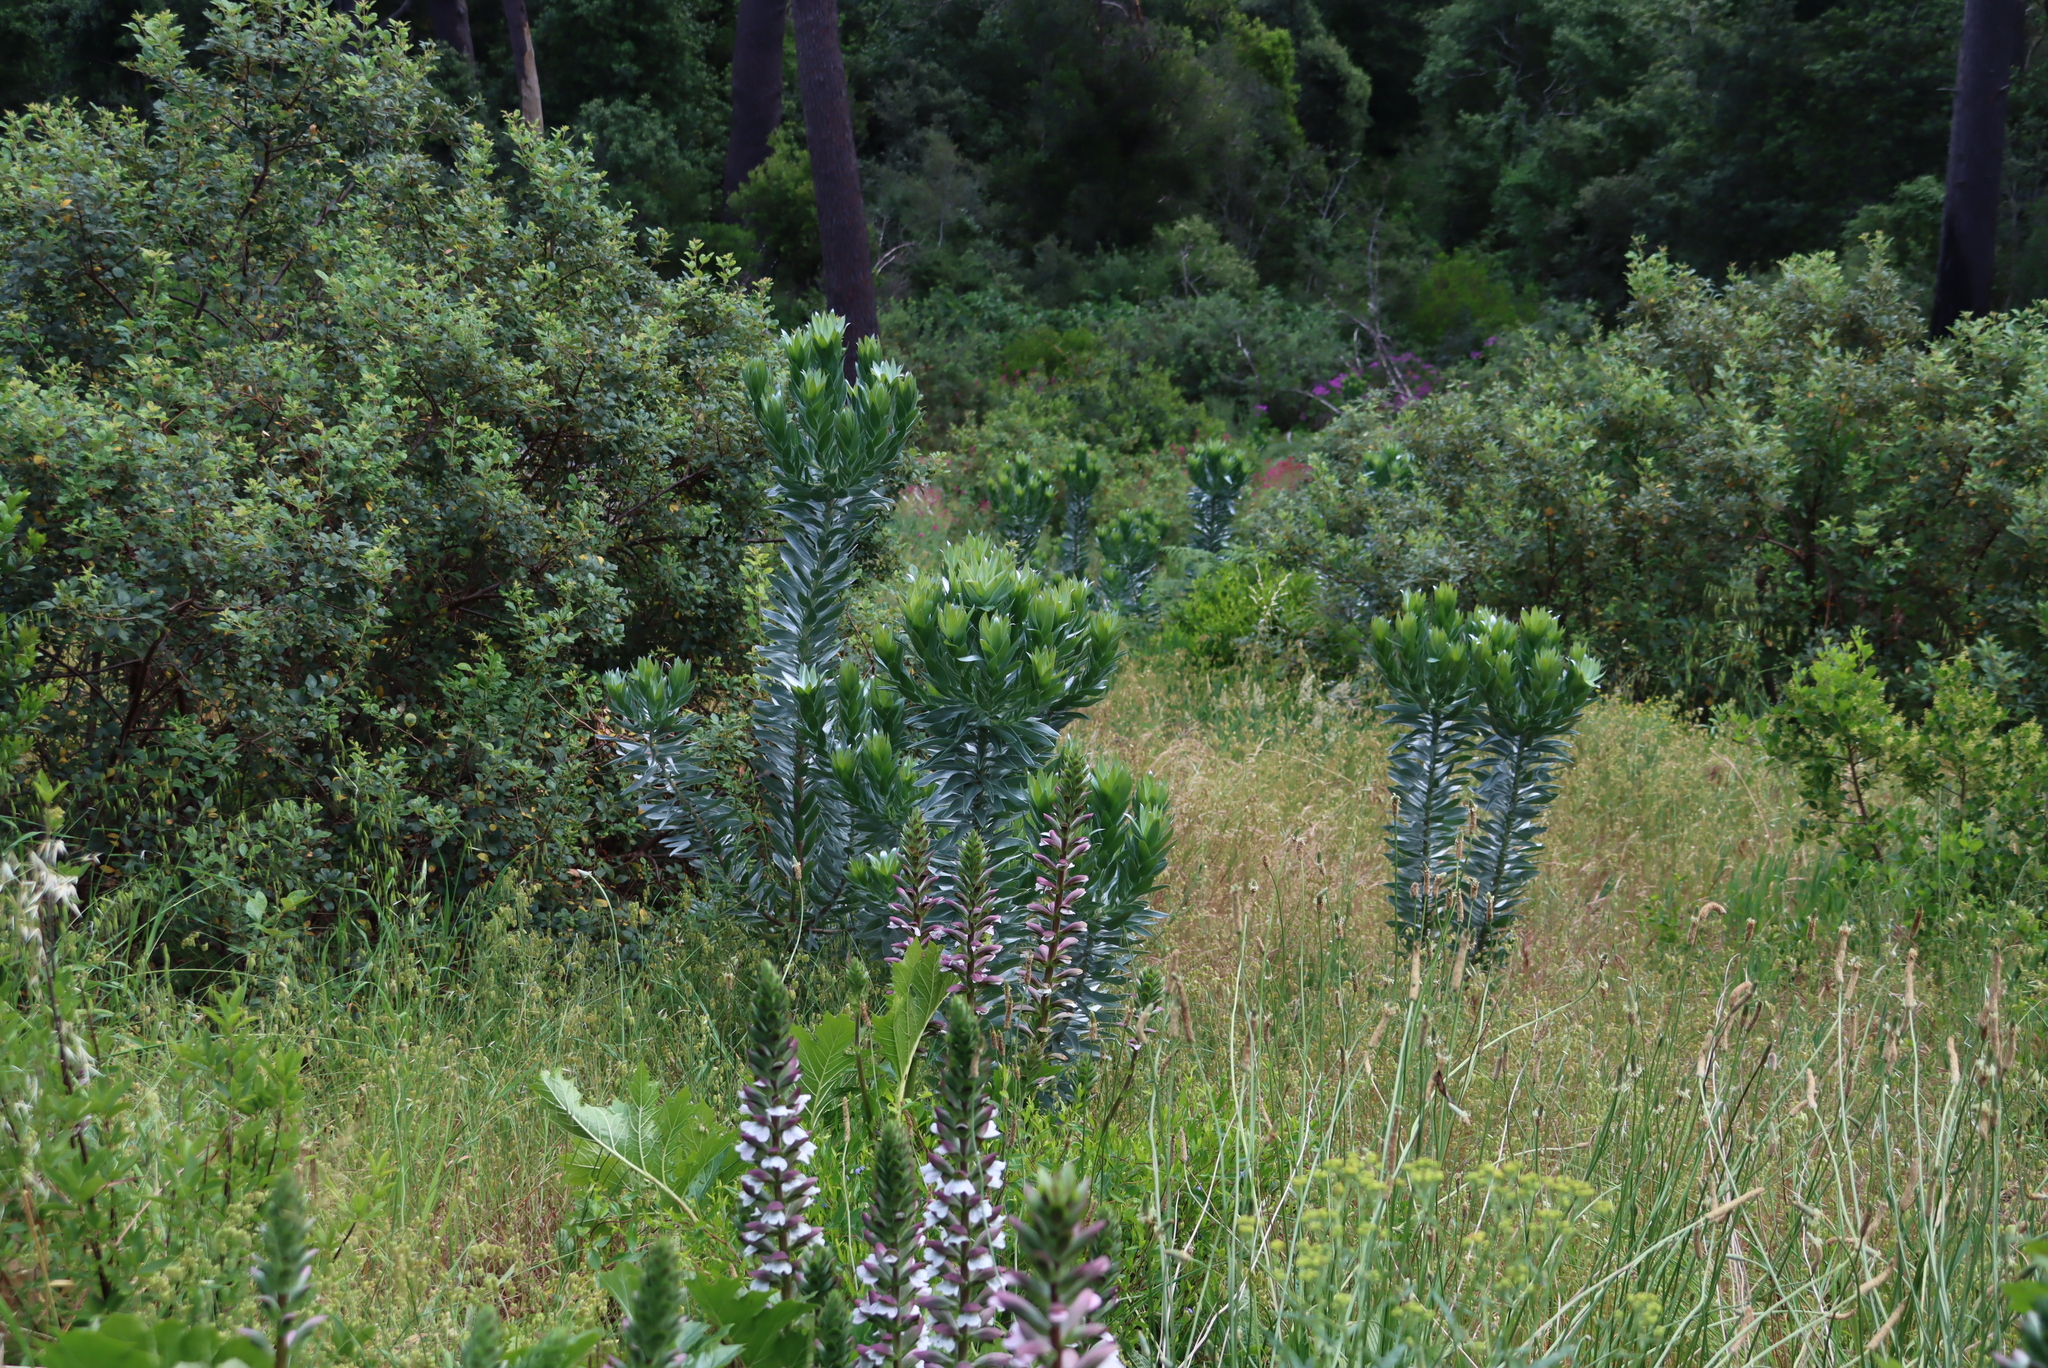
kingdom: Plantae
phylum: Tracheophyta
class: Magnoliopsida
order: Proteales
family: Proteaceae
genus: Leucadendron
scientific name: Leucadendron argenteum
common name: Cape silver tree
